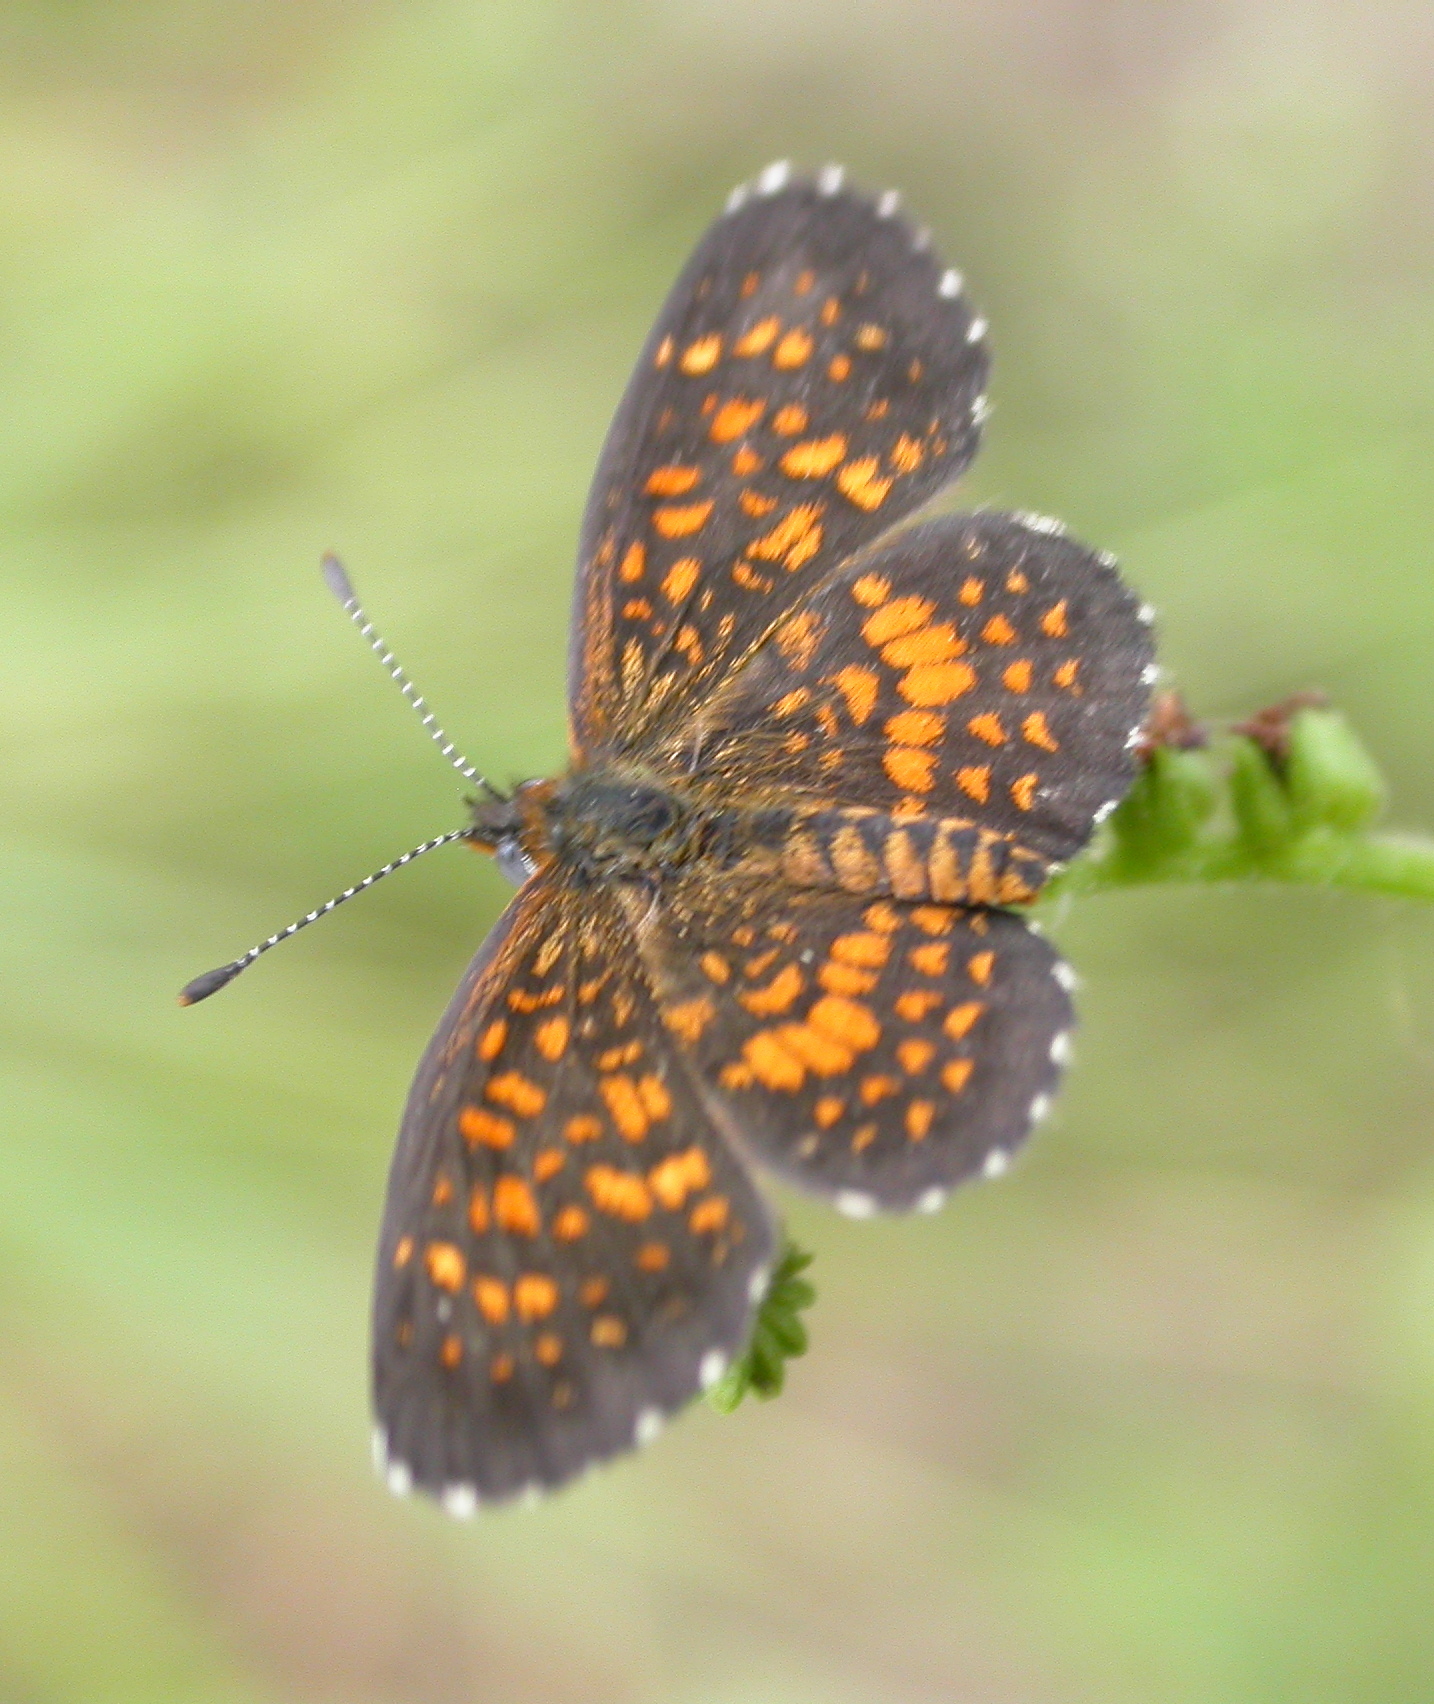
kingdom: Animalia
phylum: Arthropoda
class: Insecta
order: Lepidoptera
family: Nymphalidae
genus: Texola
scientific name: Texola elada
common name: Elada checkerspot
